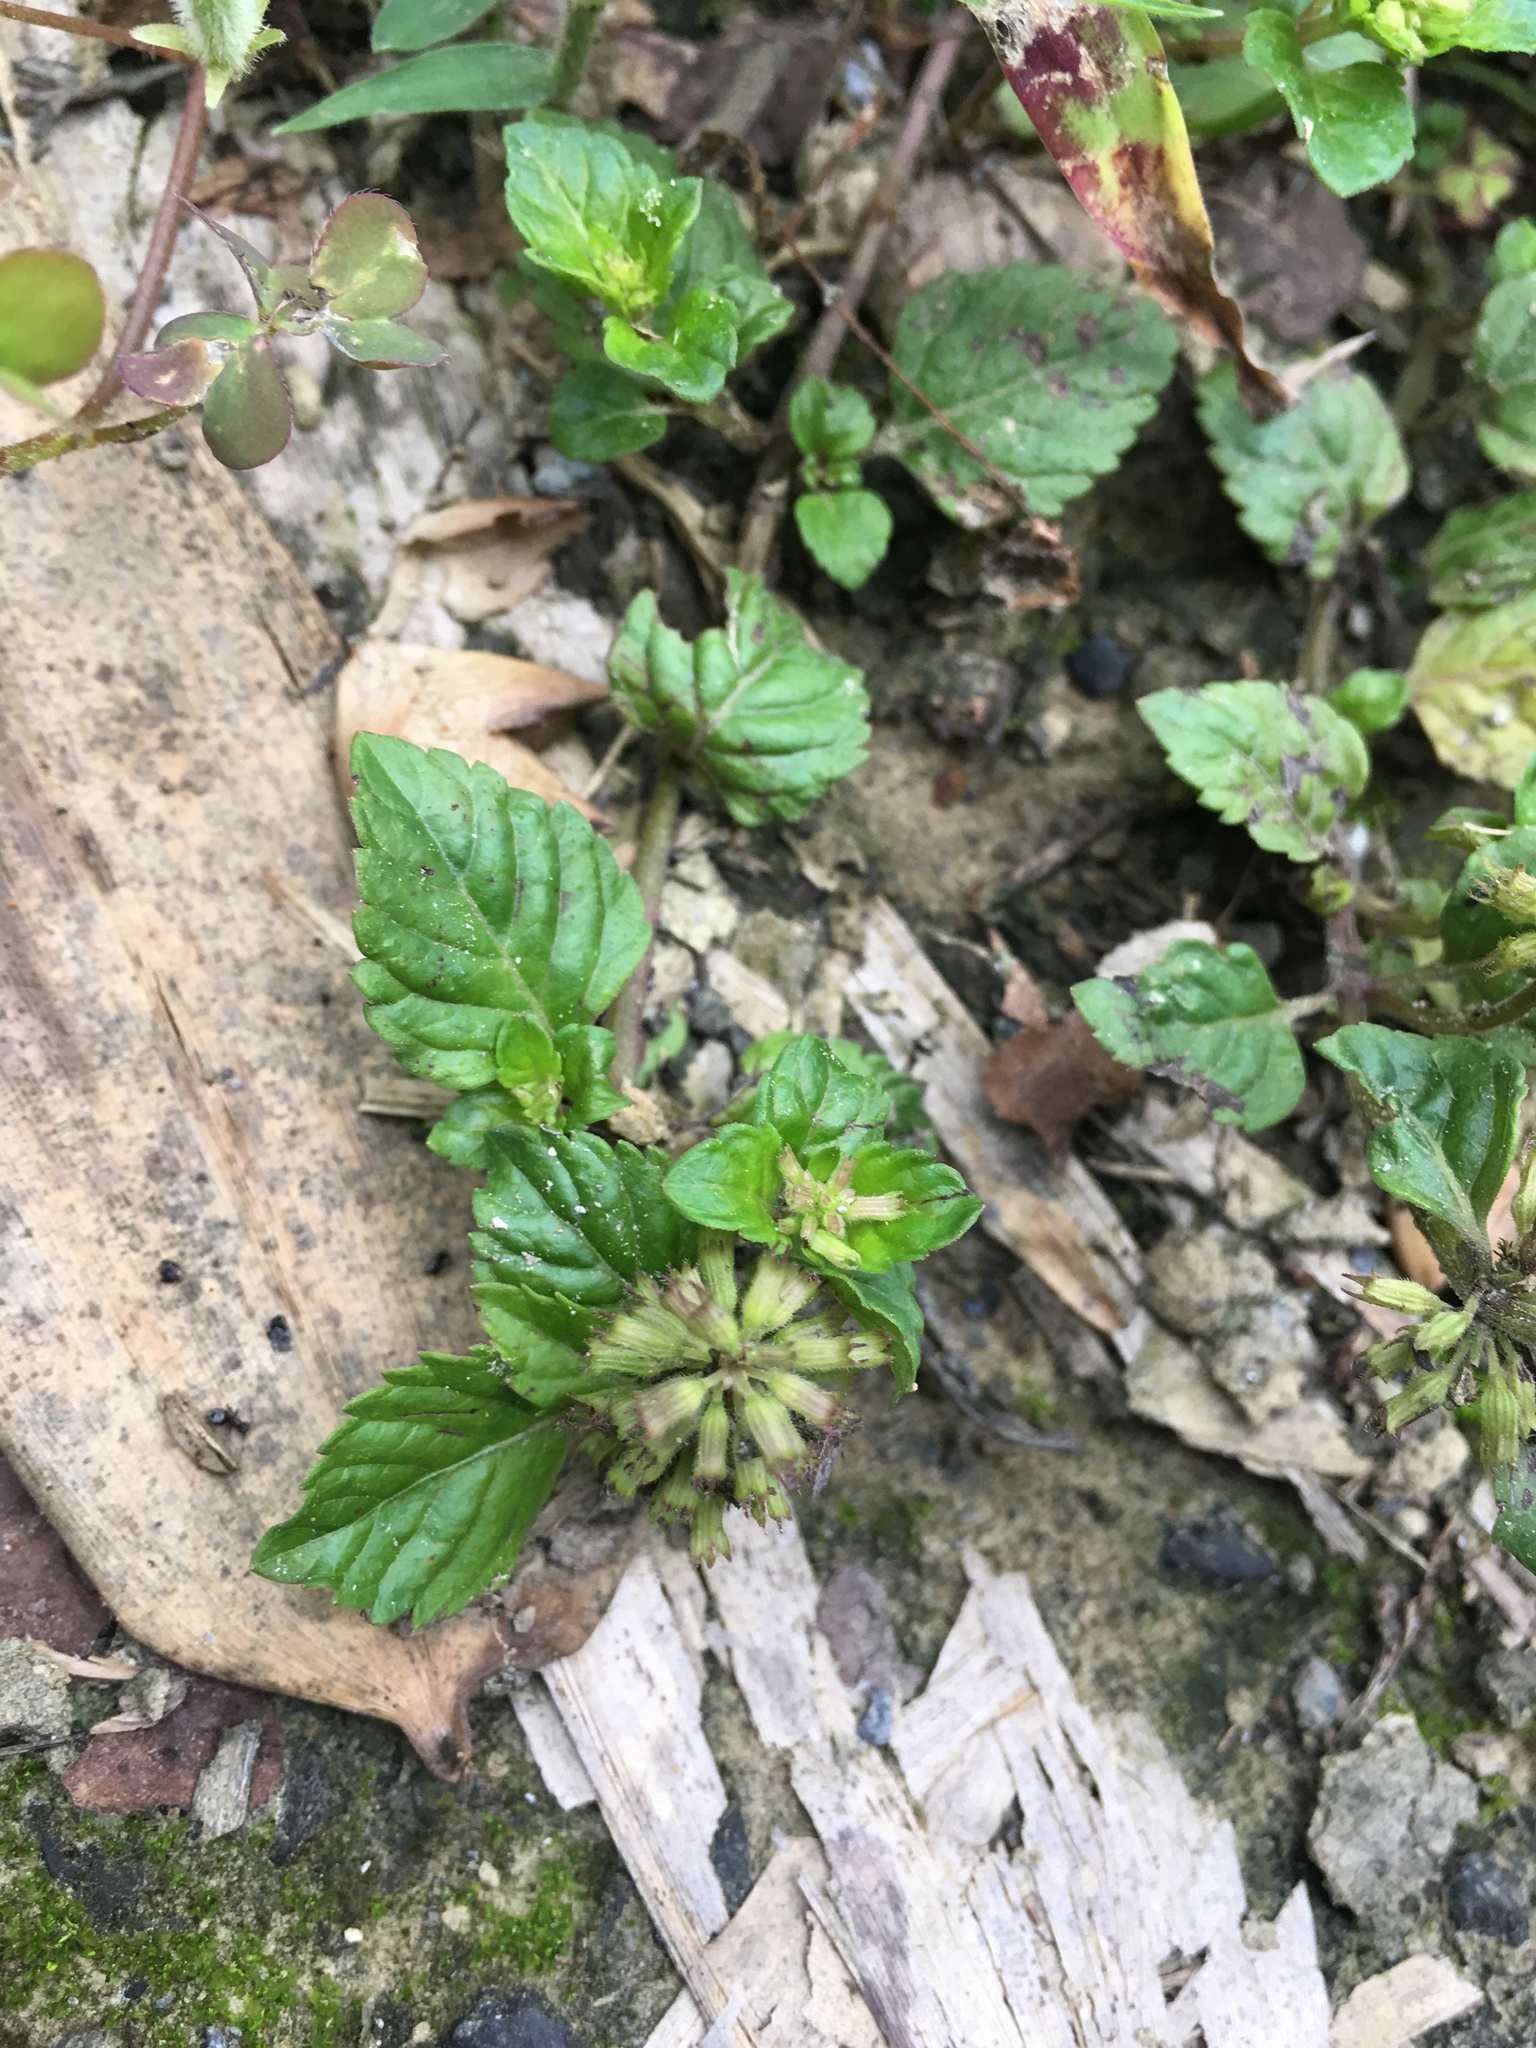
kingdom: Plantae
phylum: Tracheophyta
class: Magnoliopsida
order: Lamiales
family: Lamiaceae
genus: Clinopodium
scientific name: Clinopodium gracile
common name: Slender wild basil
